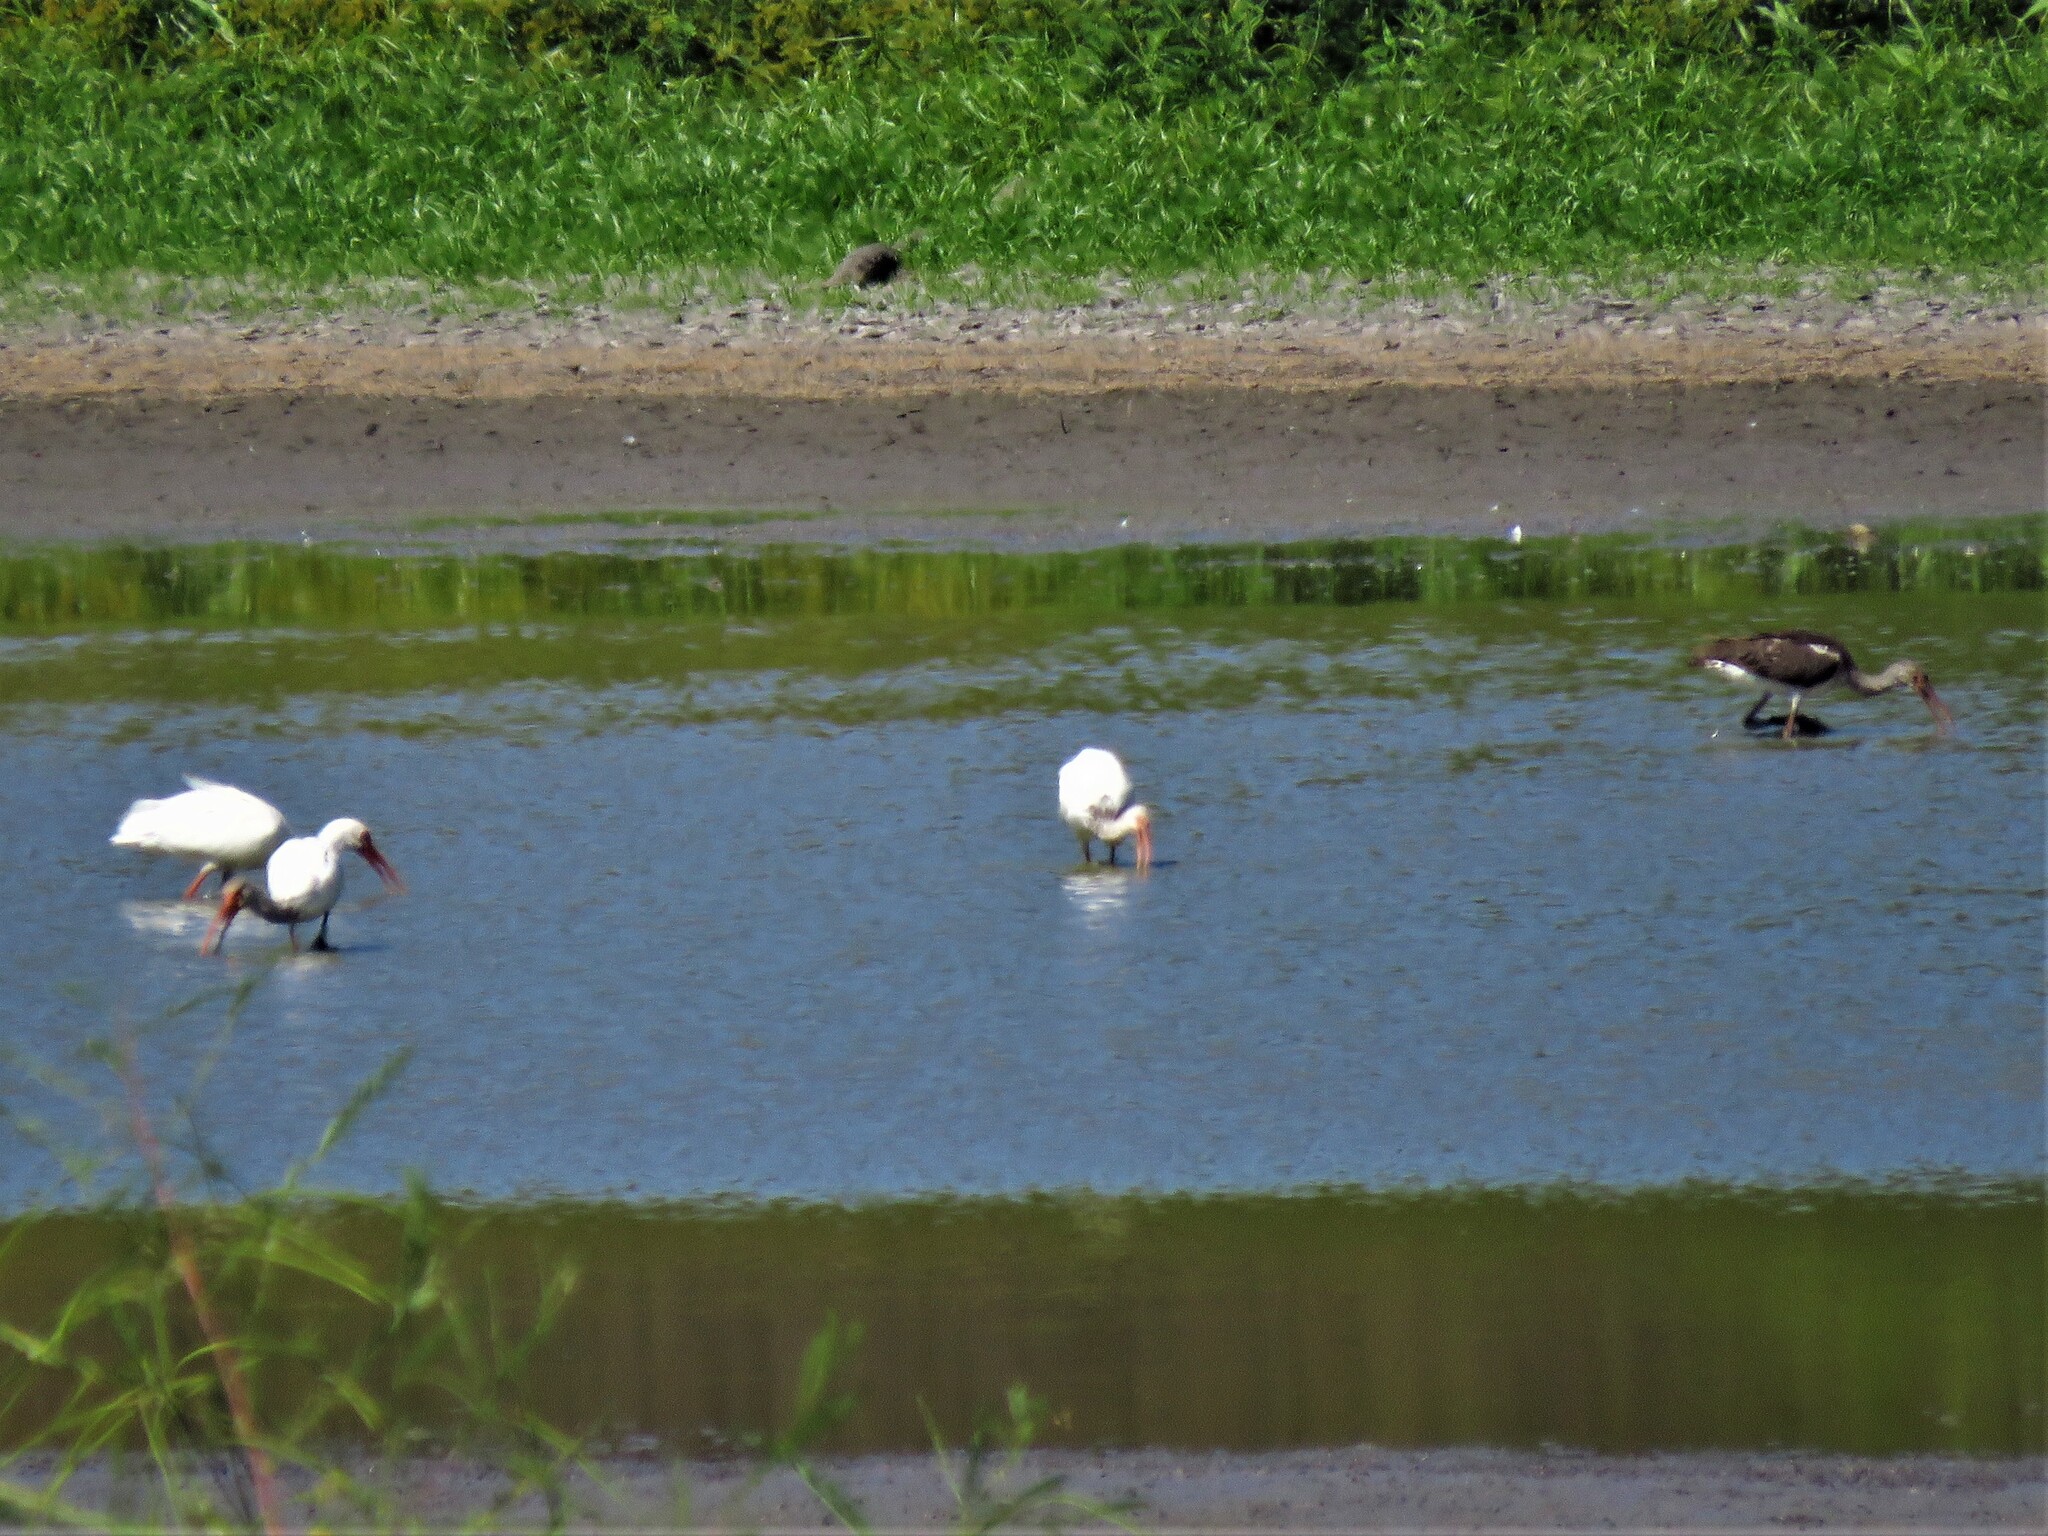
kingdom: Animalia
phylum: Chordata
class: Aves
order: Pelecaniformes
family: Threskiornithidae
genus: Eudocimus
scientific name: Eudocimus albus
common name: White ibis
